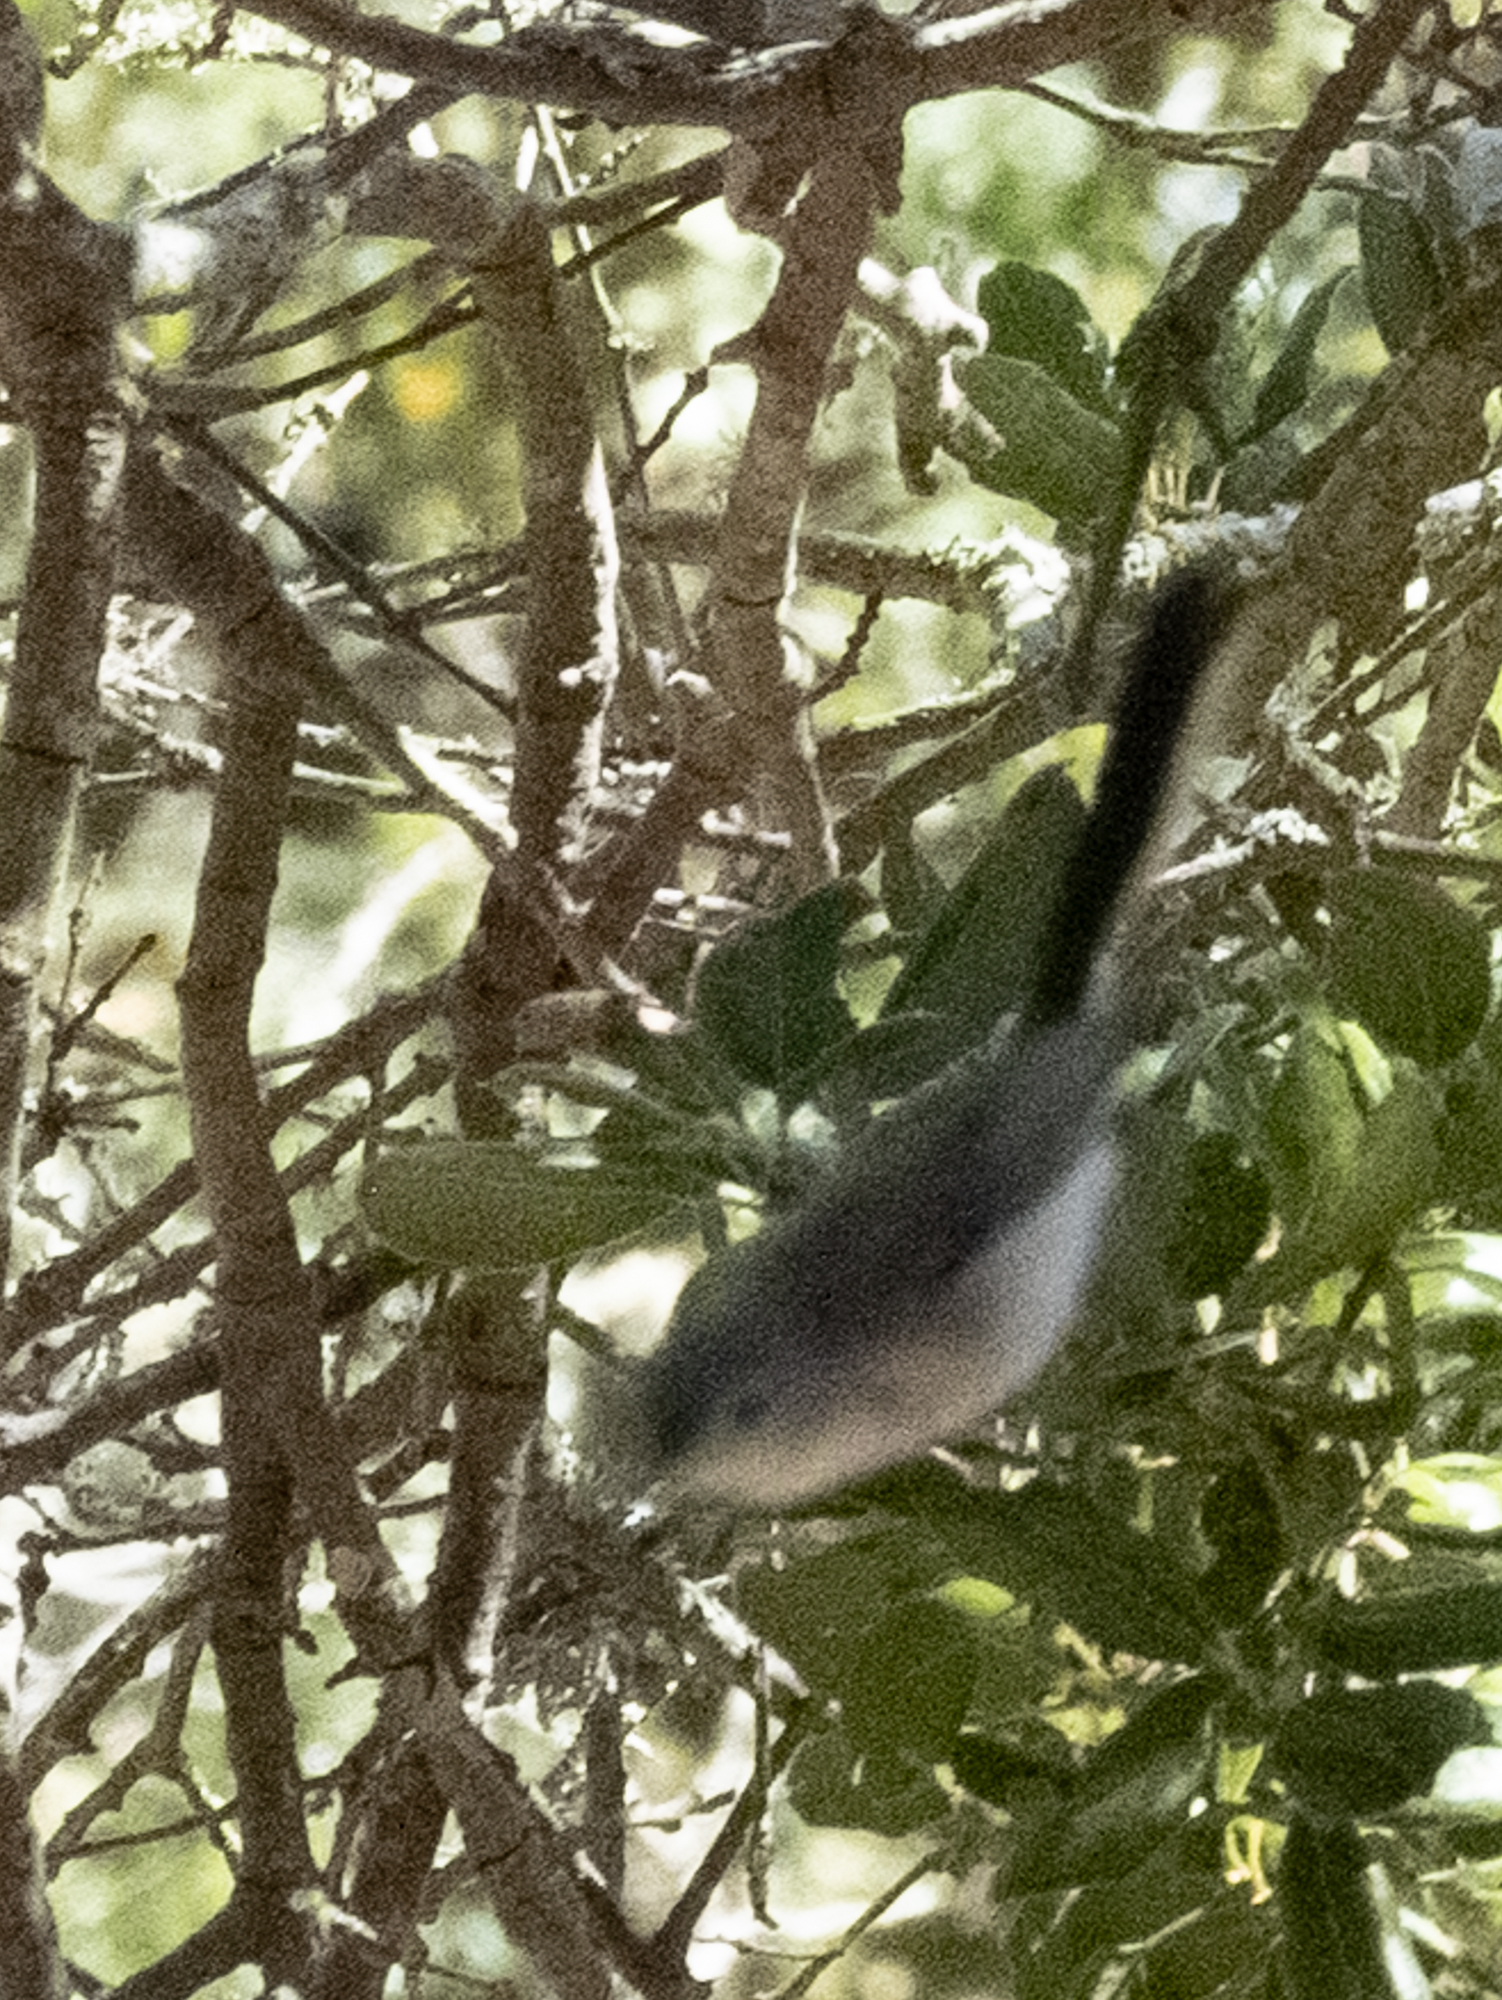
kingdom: Animalia
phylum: Chordata
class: Aves
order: Passeriformes
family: Polioptilidae
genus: Polioptila
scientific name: Polioptila caerulea
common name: Blue-gray gnatcatcher
